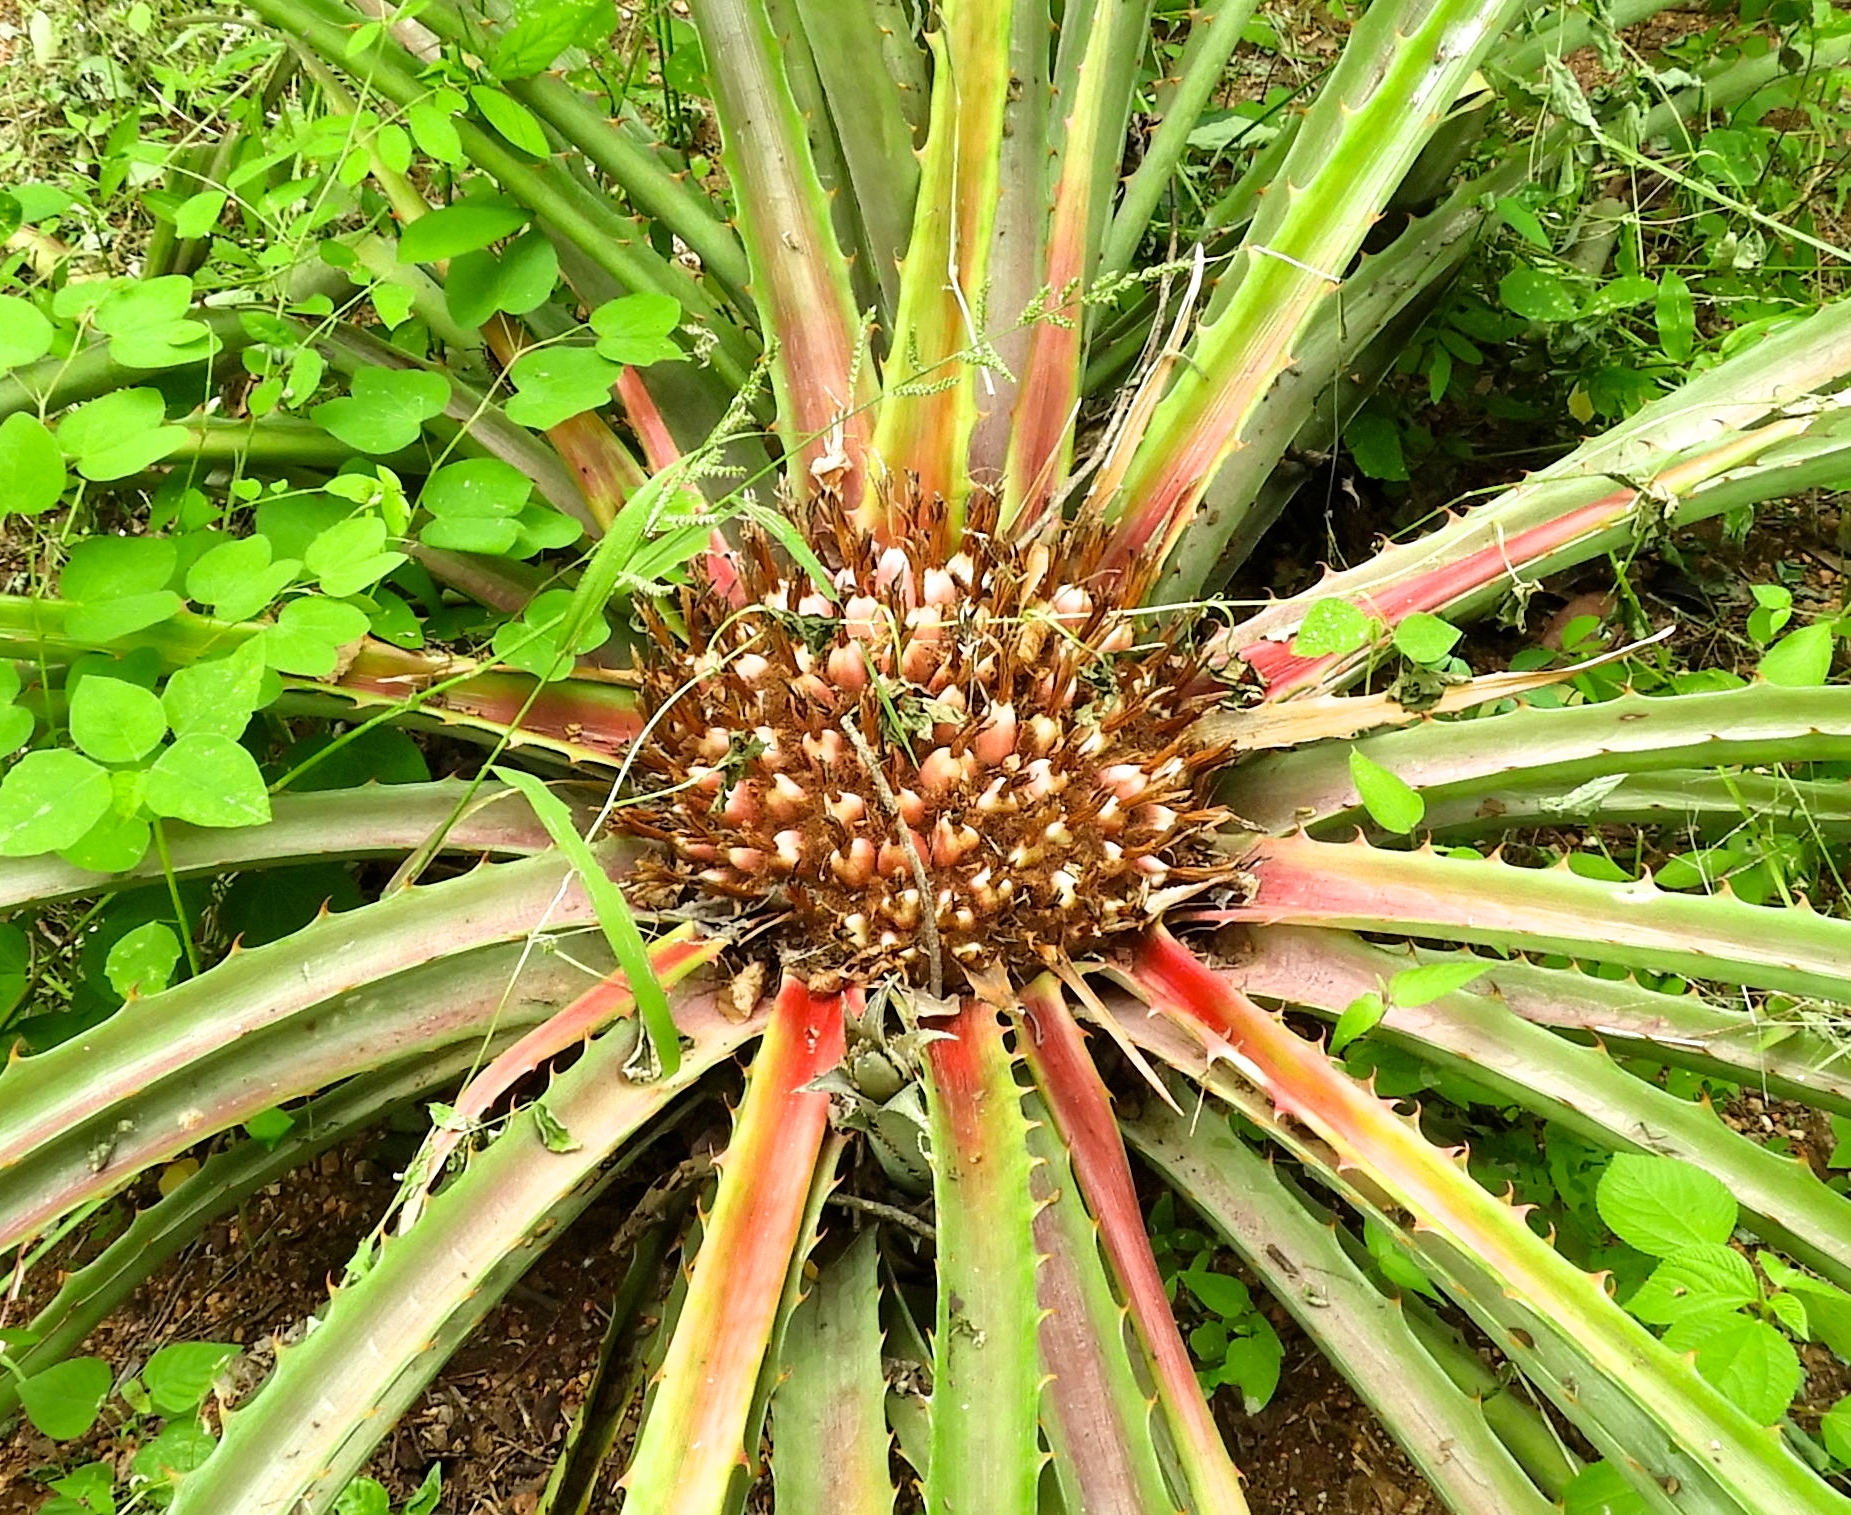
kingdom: Plantae
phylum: Tracheophyta
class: Liliopsida
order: Poales
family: Bromeliaceae
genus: Bromelia
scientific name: Bromelia karatas
